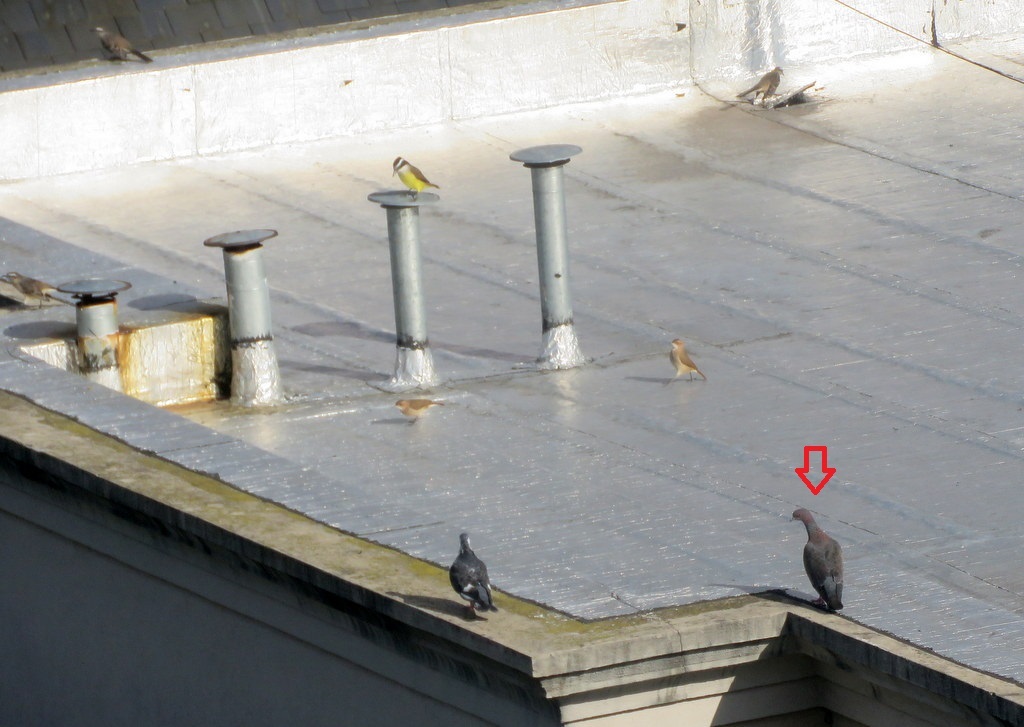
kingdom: Animalia
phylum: Chordata
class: Aves
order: Columbiformes
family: Columbidae
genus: Patagioenas
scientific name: Patagioenas picazuro
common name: Picazuro pigeon
